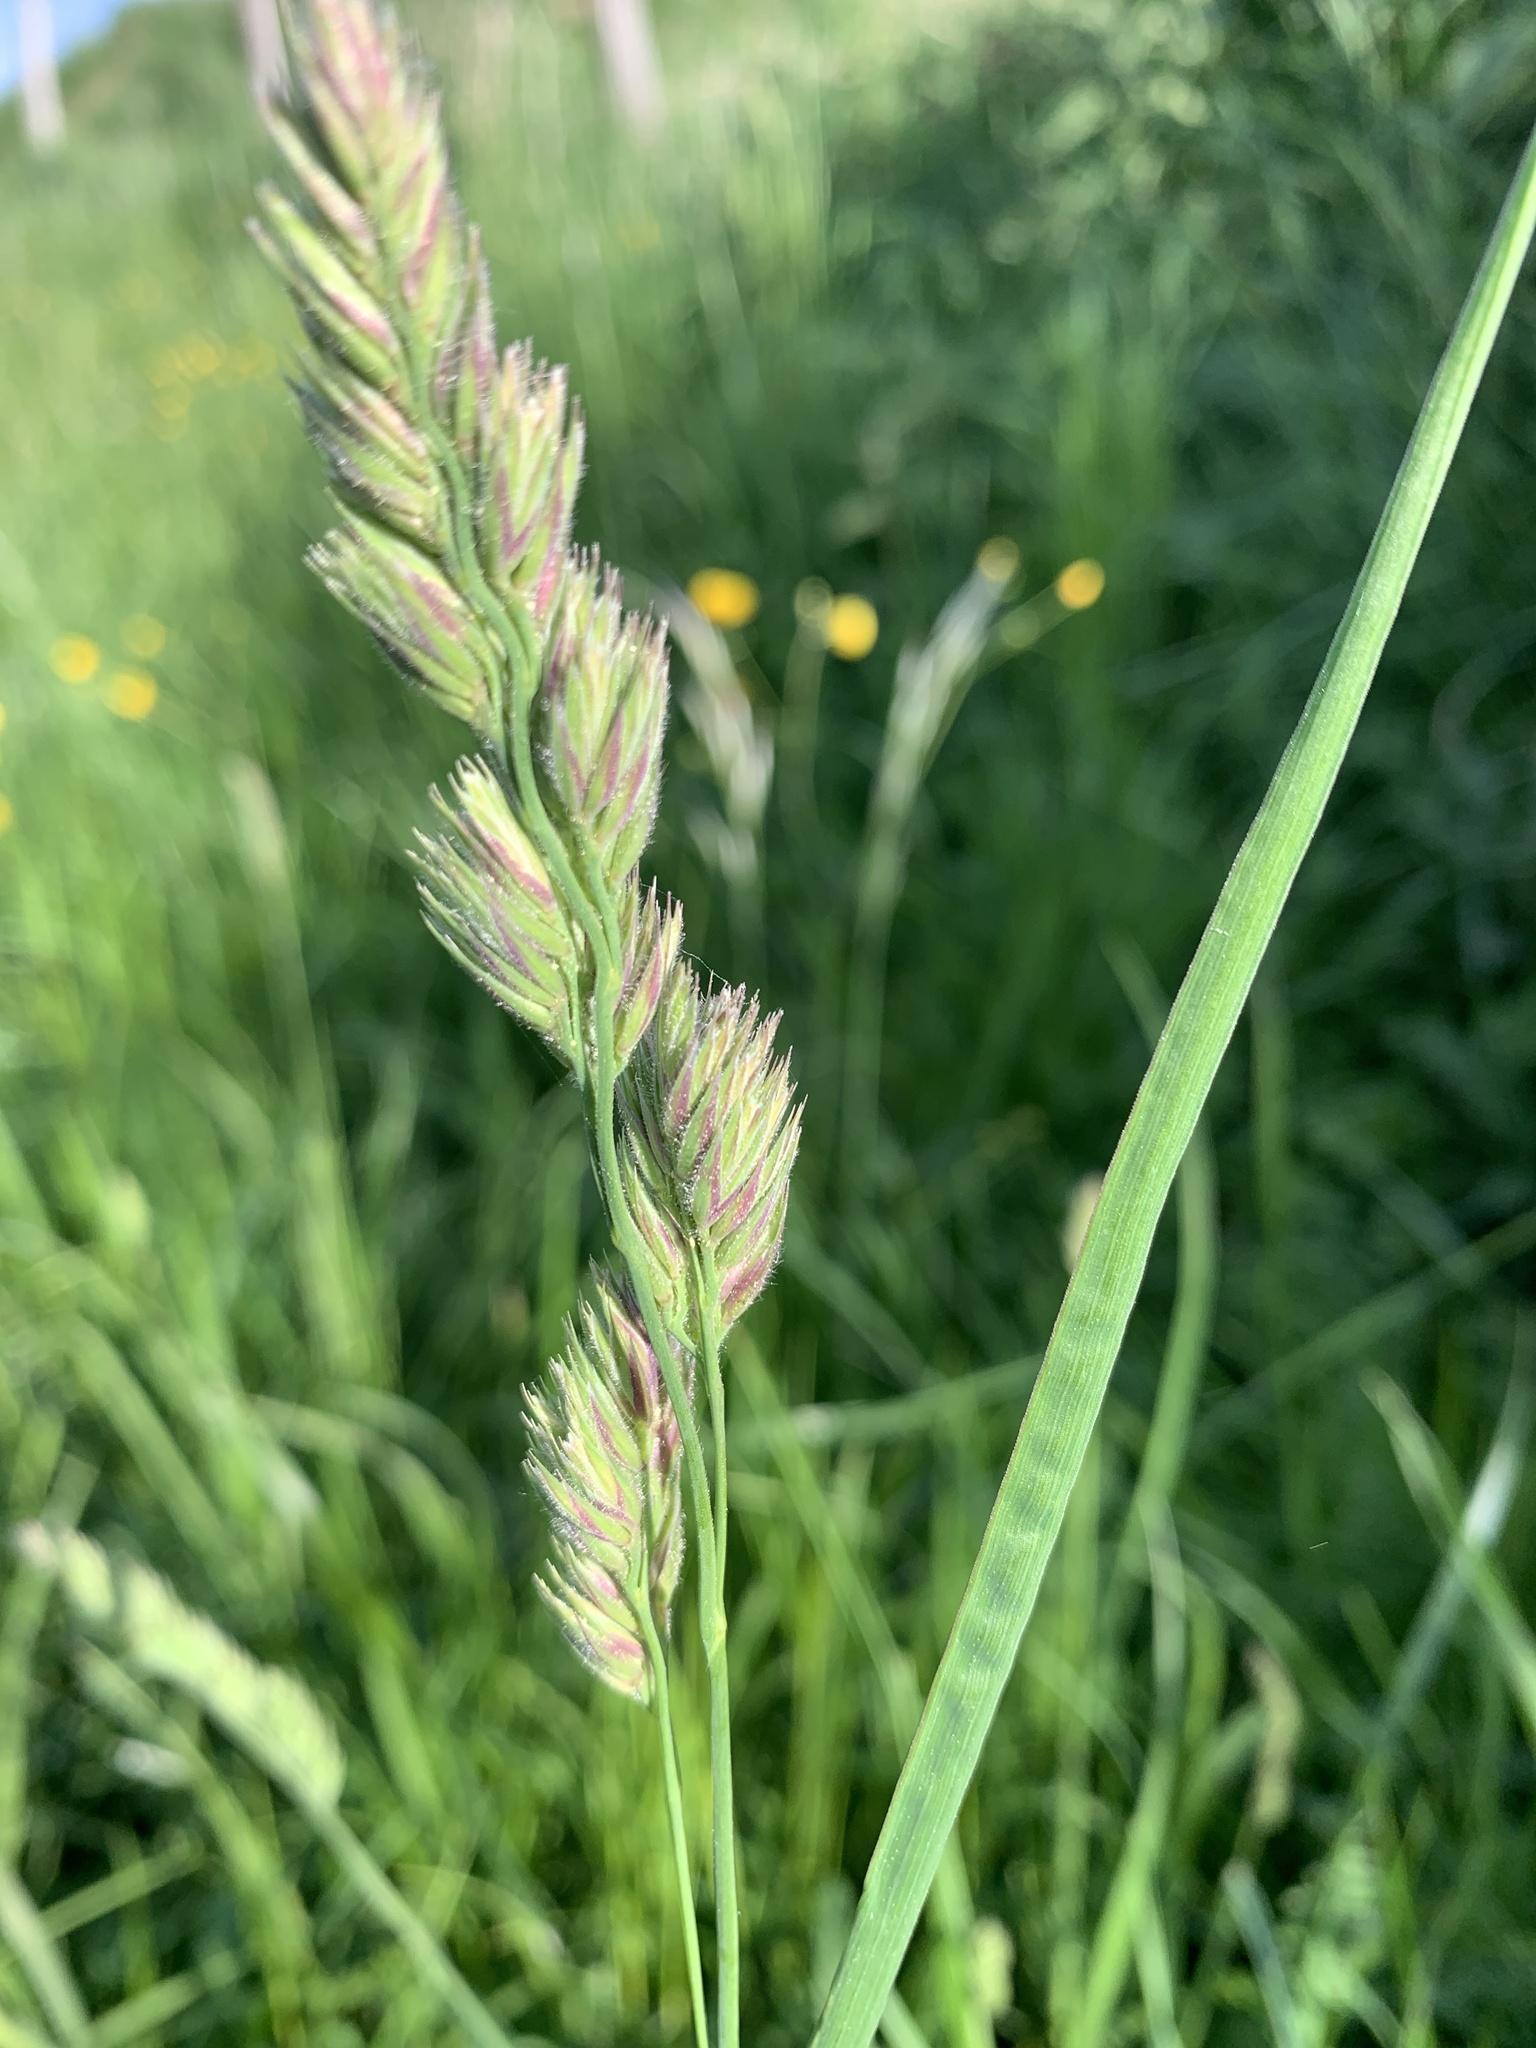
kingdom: Plantae
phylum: Tracheophyta
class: Liliopsida
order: Poales
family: Poaceae
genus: Dactylis
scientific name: Dactylis glomerata
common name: Orchardgrass
